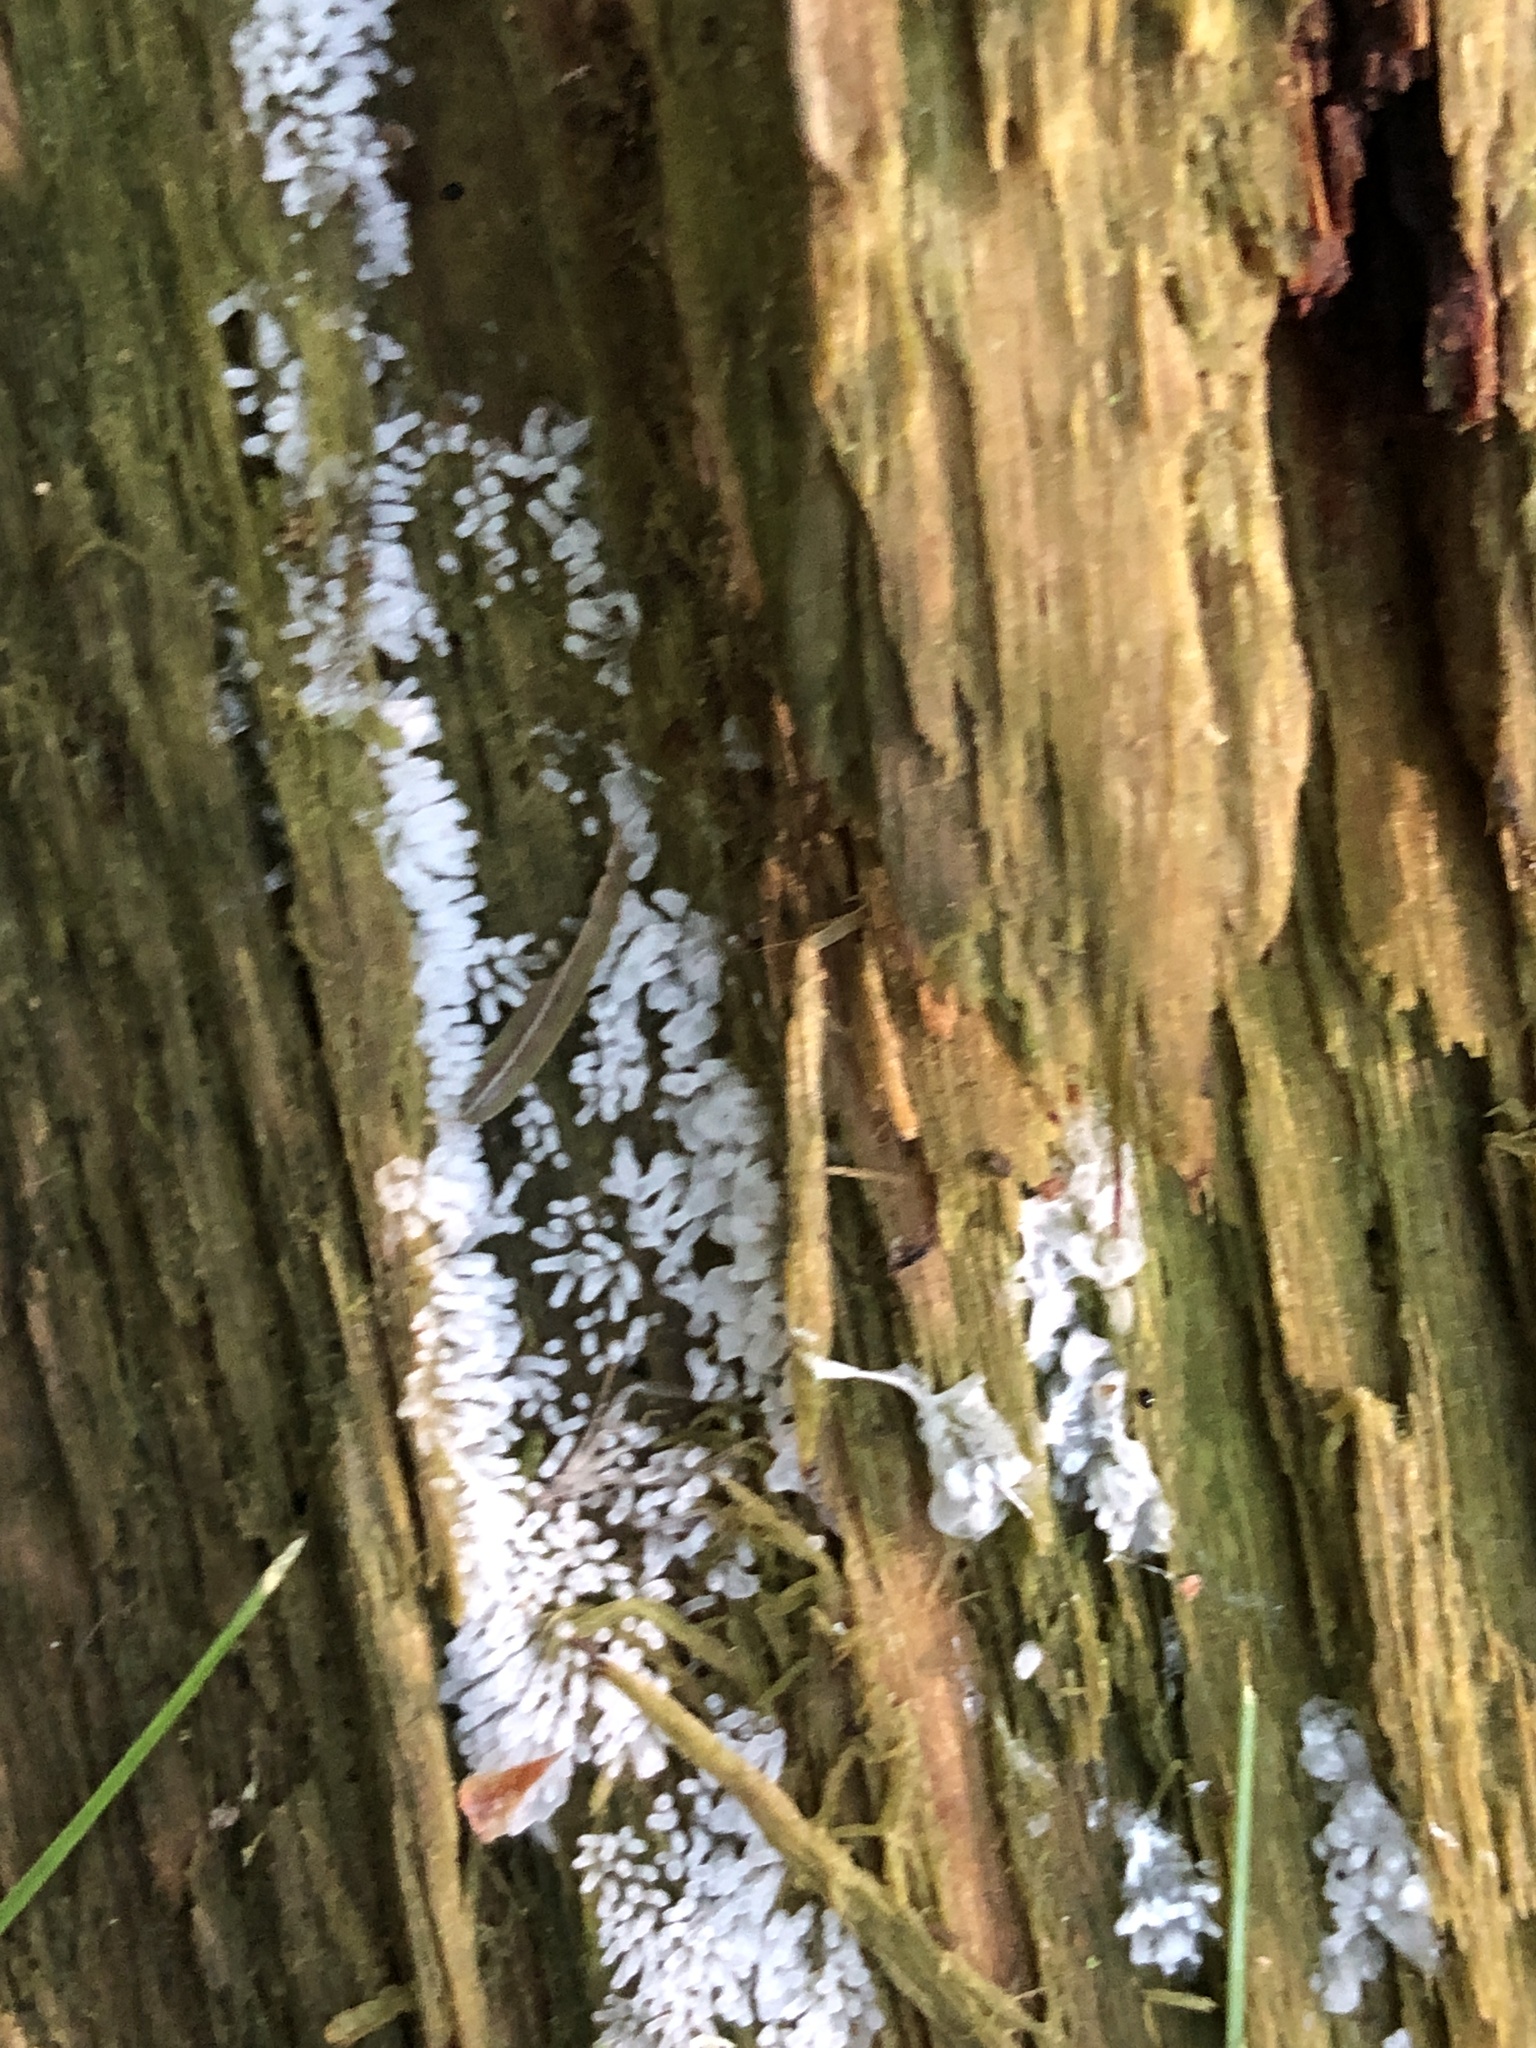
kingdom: Protozoa
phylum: Mycetozoa
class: Protosteliomycetes
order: Ceratiomyxales
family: Ceratiomyxaceae
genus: Ceratiomyxa
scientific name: Ceratiomyxa fruticulosa
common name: Honeycomb coral slime mold
